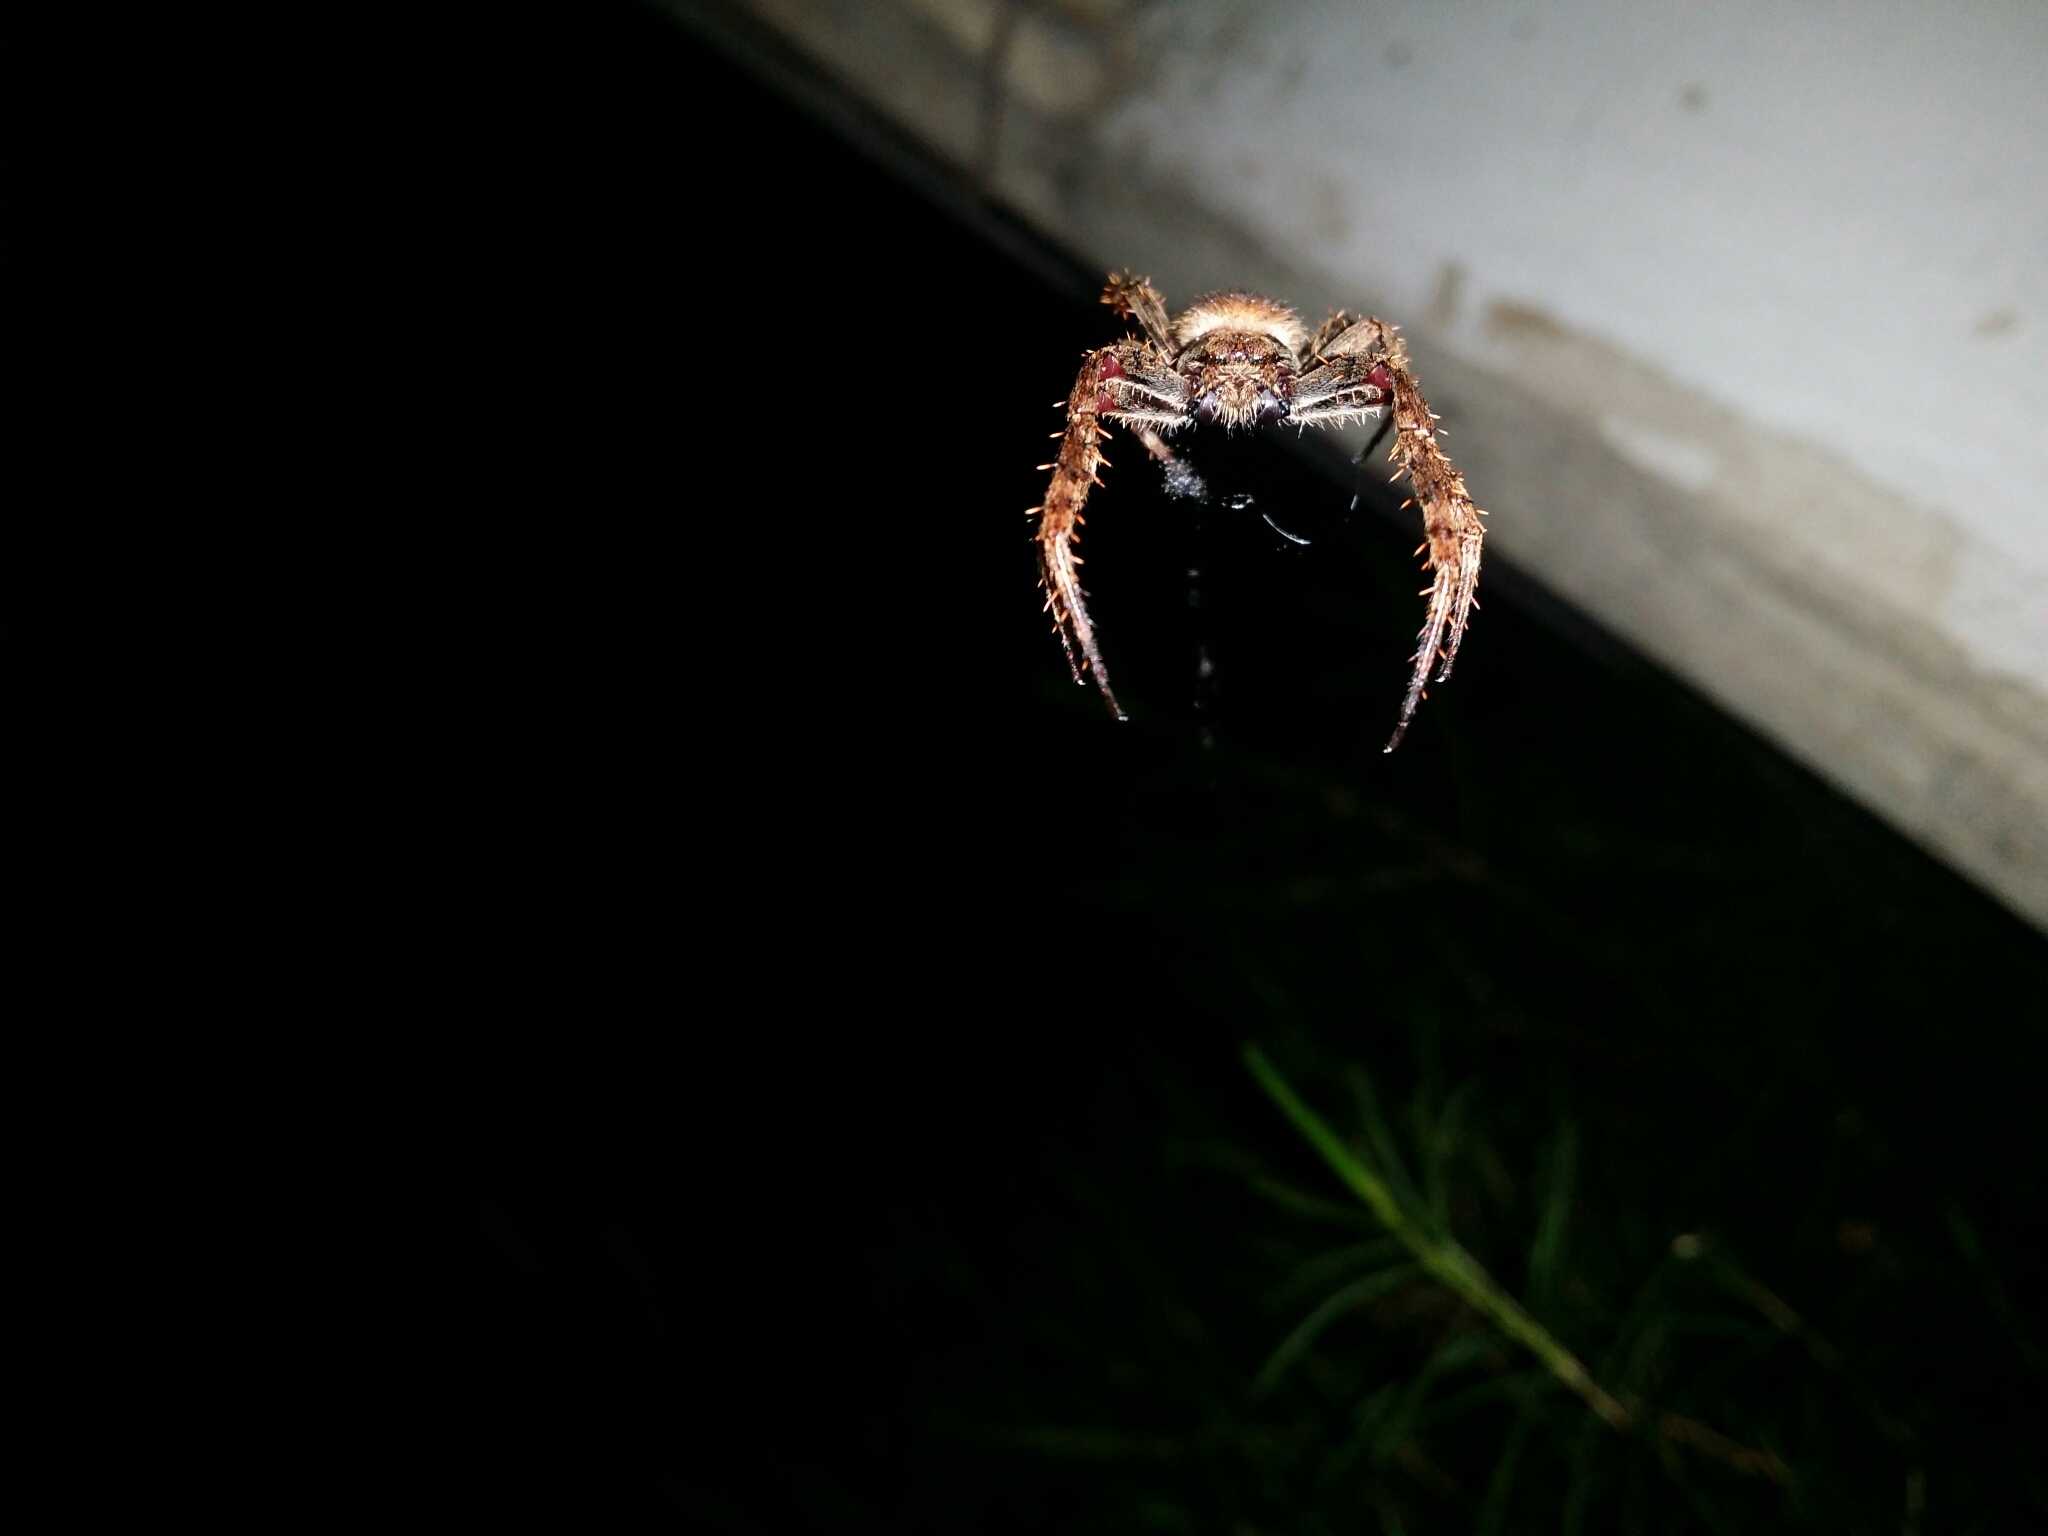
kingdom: Animalia
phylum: Arthropoda
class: Arachnida
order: Araneae
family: Araneidae
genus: Hortophora
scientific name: Hortophora biapicata
